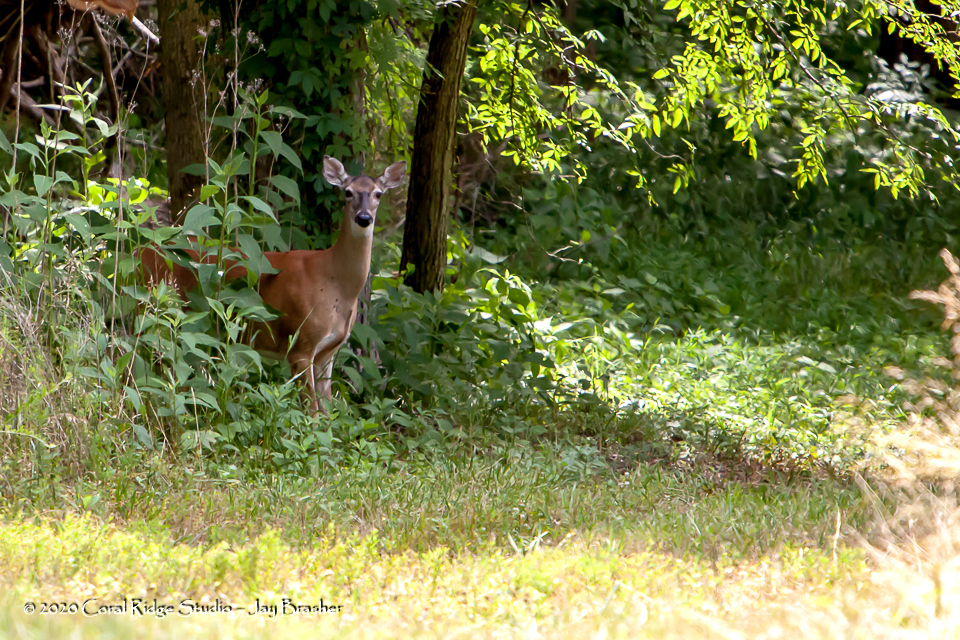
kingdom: Animalia
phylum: Chordata
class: Mammalia
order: Artiodactyla
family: Cervidae
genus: Odocoileus
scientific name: Odocoileus virginianus
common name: White-tailed deer
